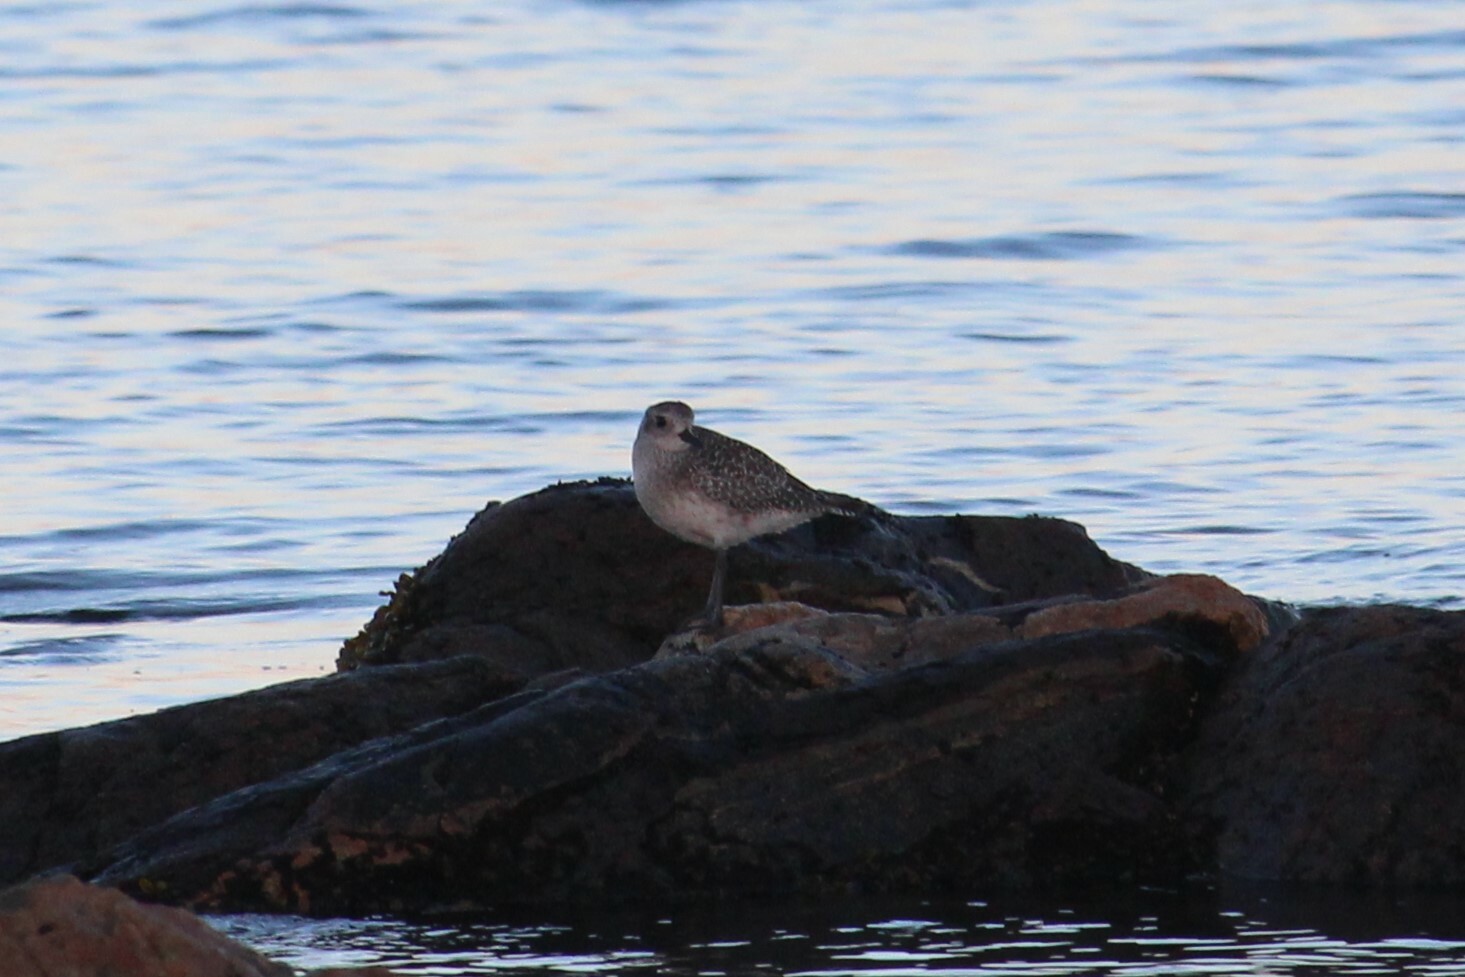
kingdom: Animalia
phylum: Chordata
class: Aves
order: Charadriiformes
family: Charadriidae
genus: Pluvialis
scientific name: Pluvialis squatarola
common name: Grey plover
